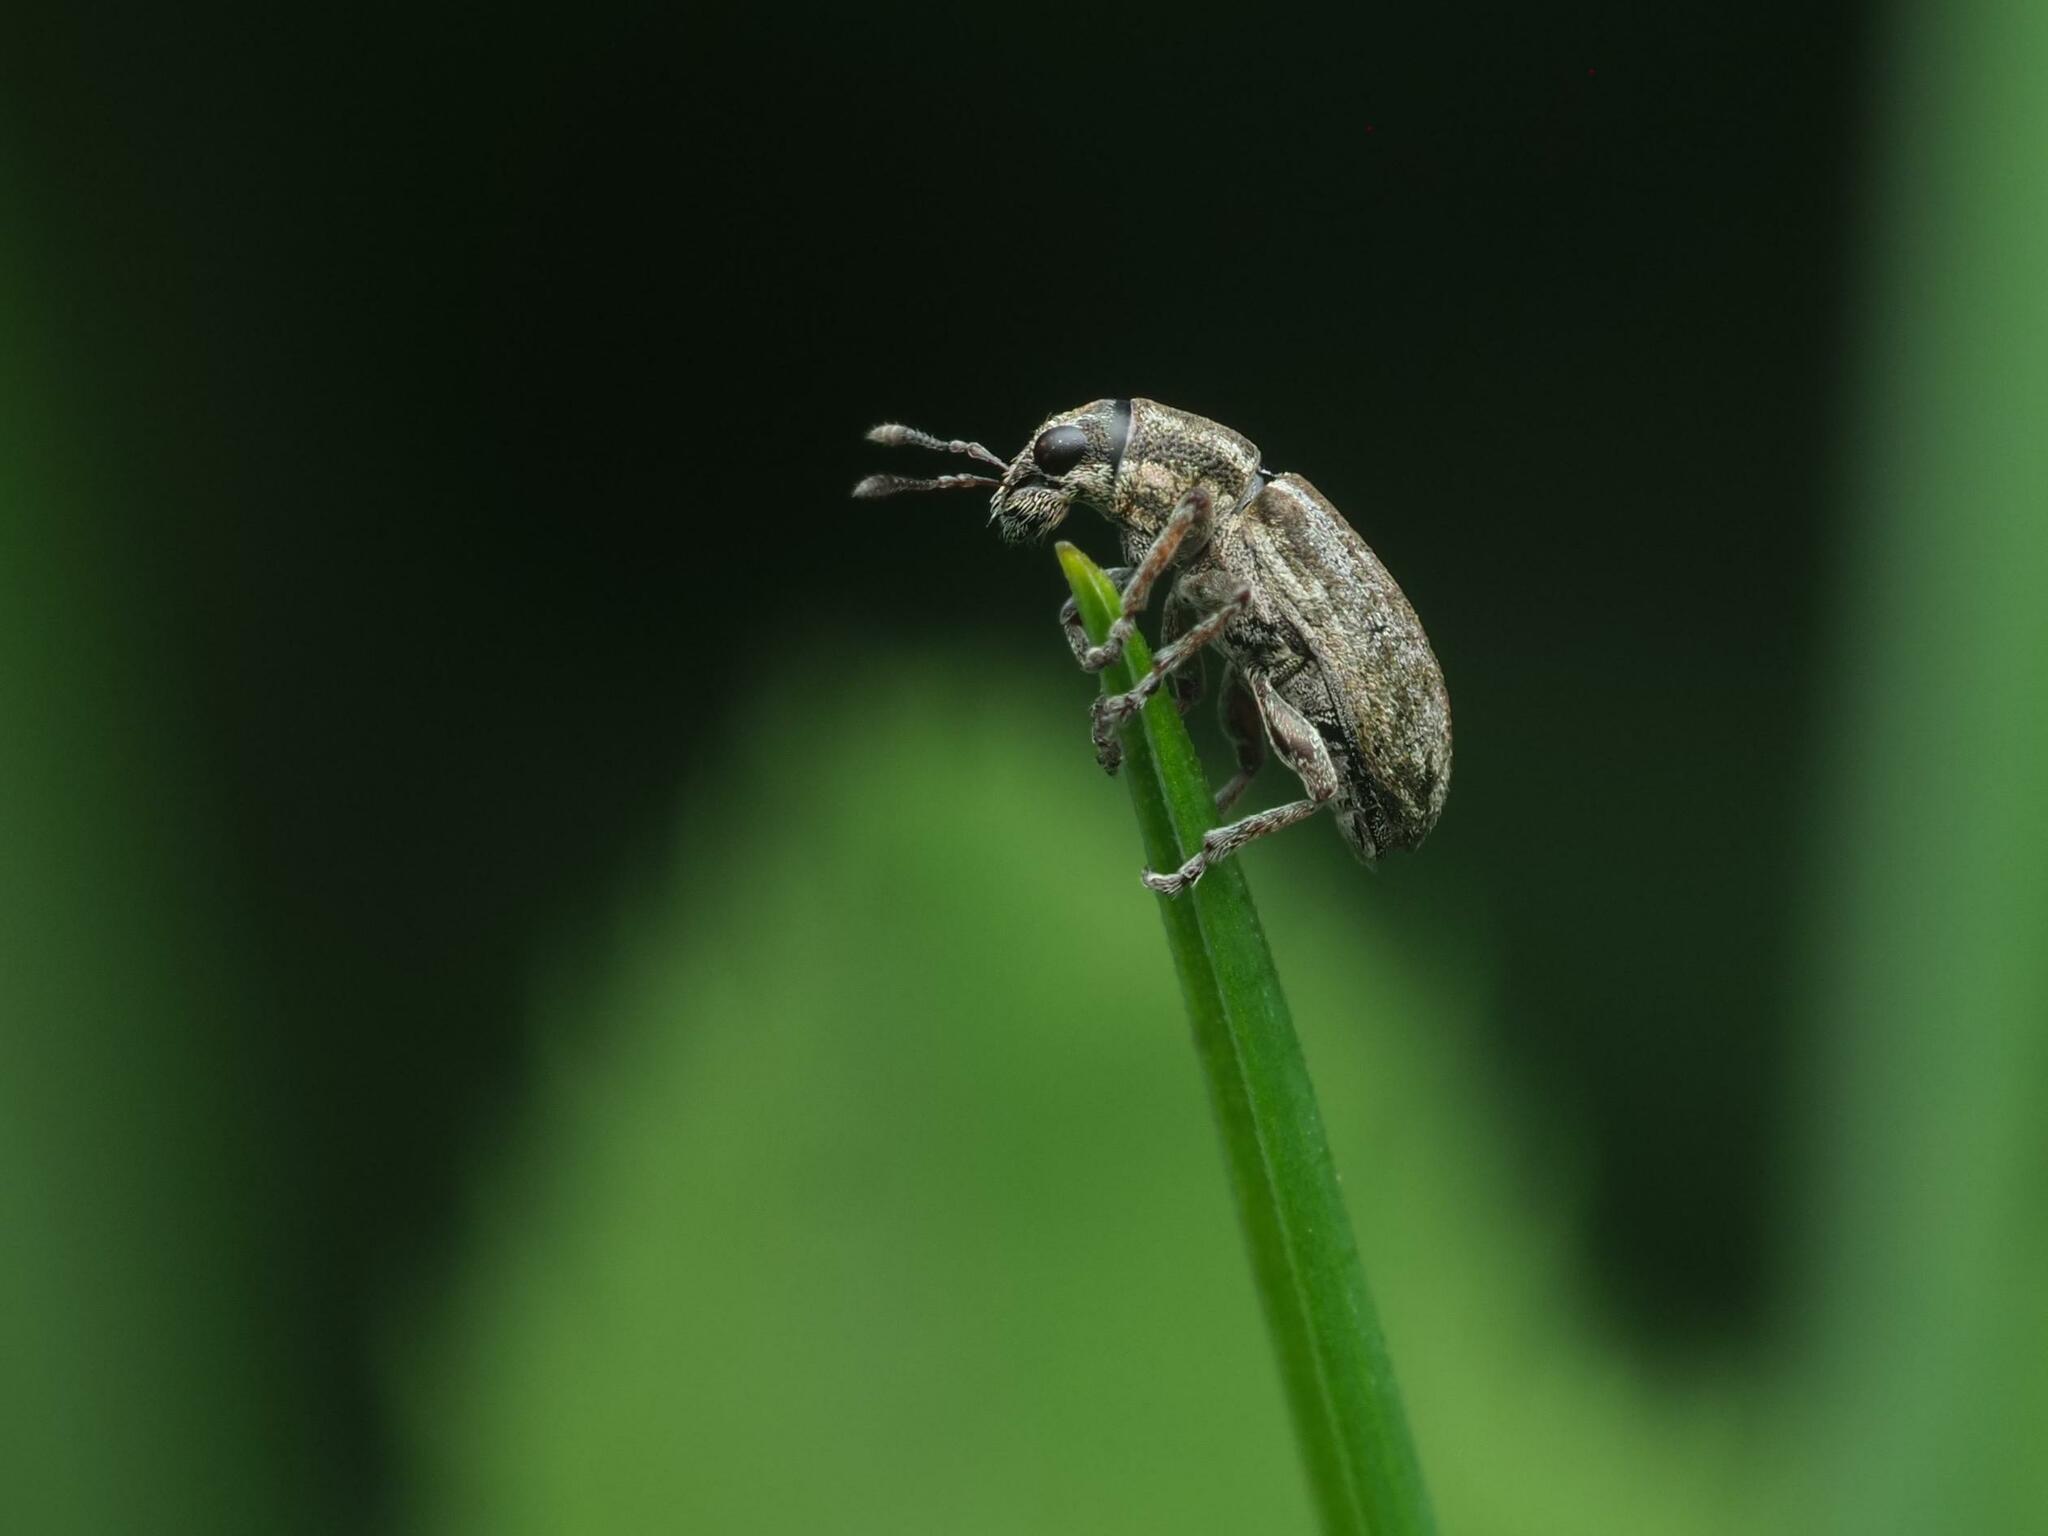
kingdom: Animalia
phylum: Arthropoda
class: Insecta
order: Coleoptera
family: Curculionidae
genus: Sitona
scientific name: Sitona humeralis
